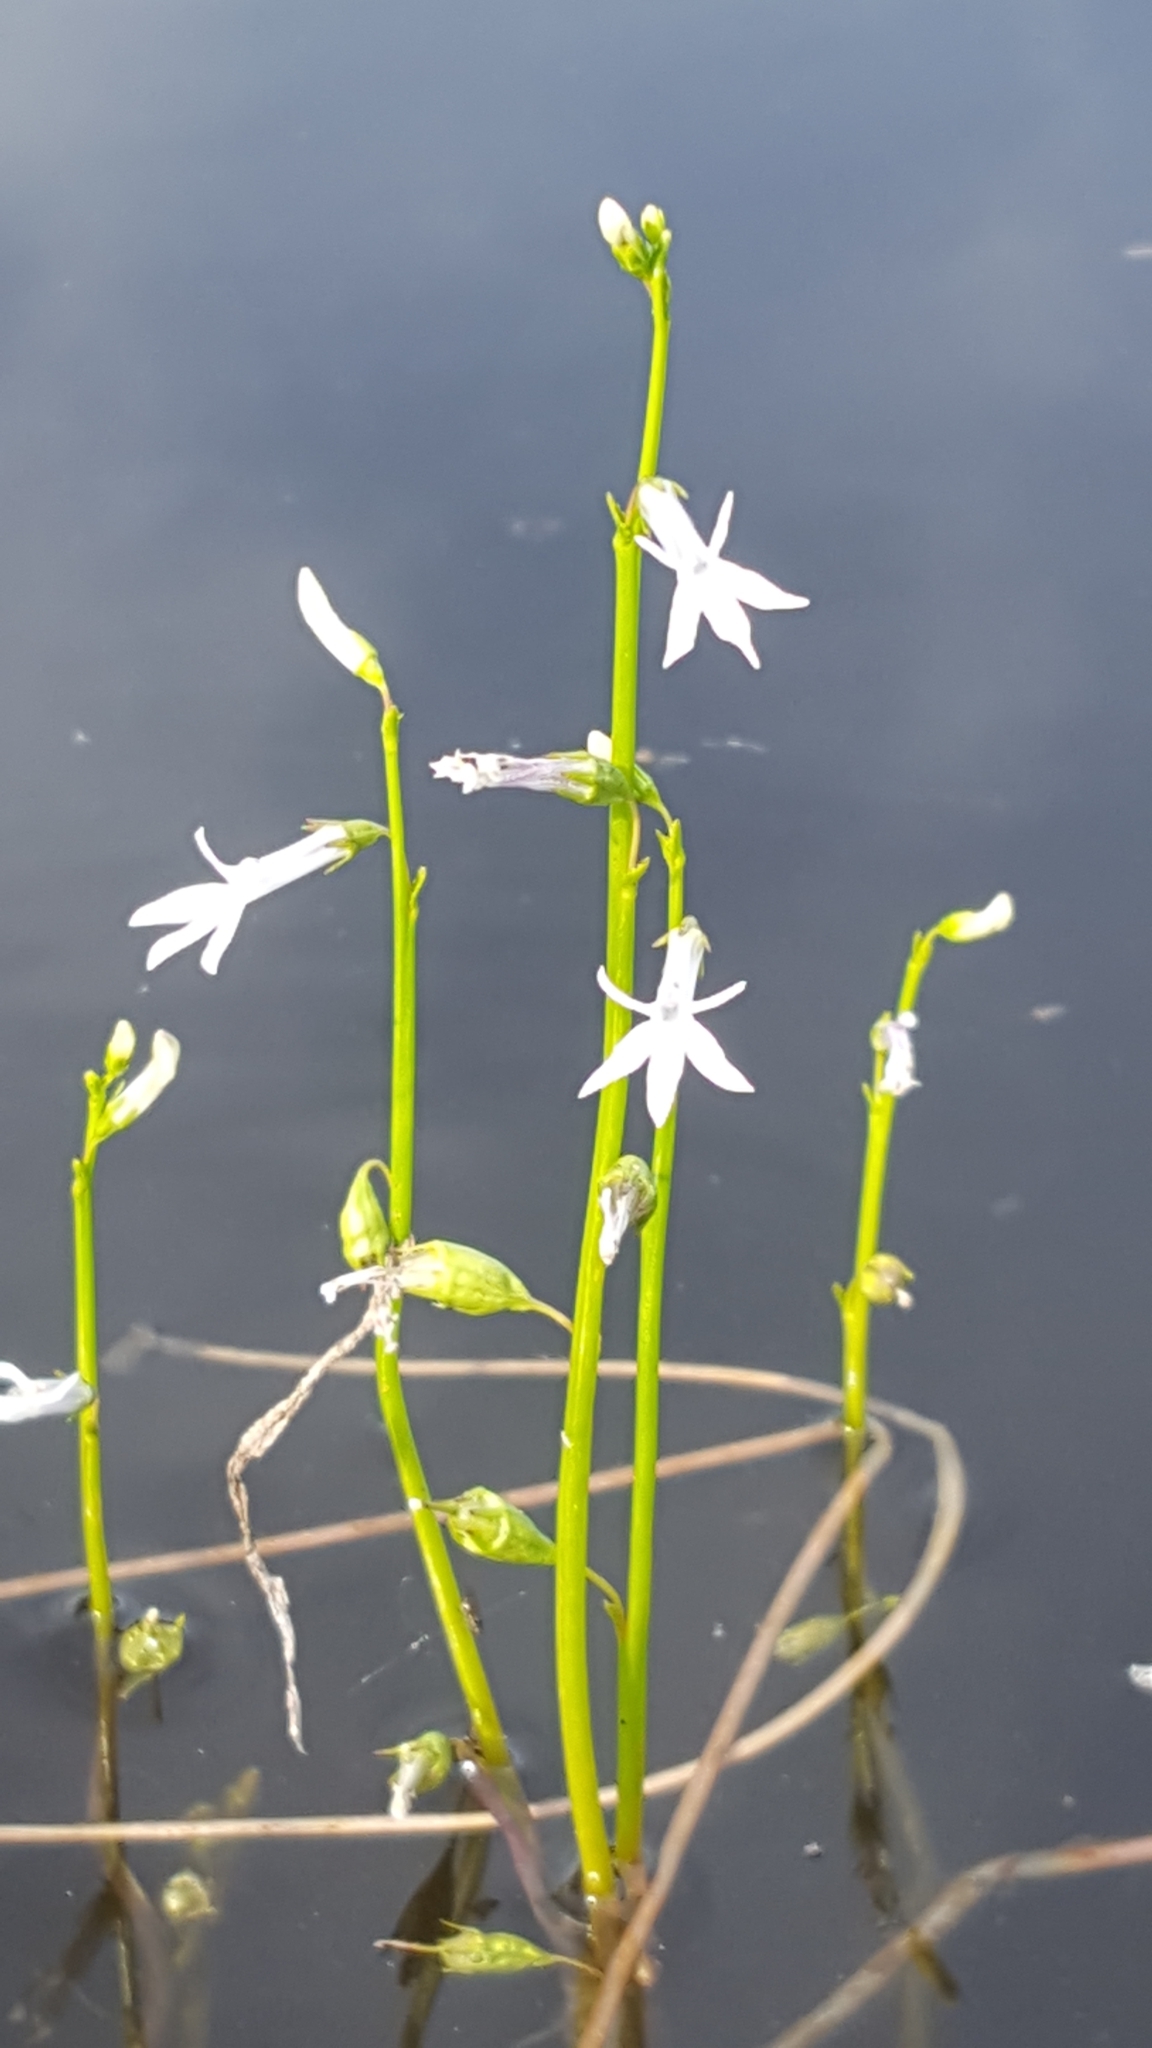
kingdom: Plantae
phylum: Tracheophyta
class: Magnoliopsida
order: Asterales
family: Campanulaceae
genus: Lobelia
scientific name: Lobelia dortmanna
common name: Water lobelia
